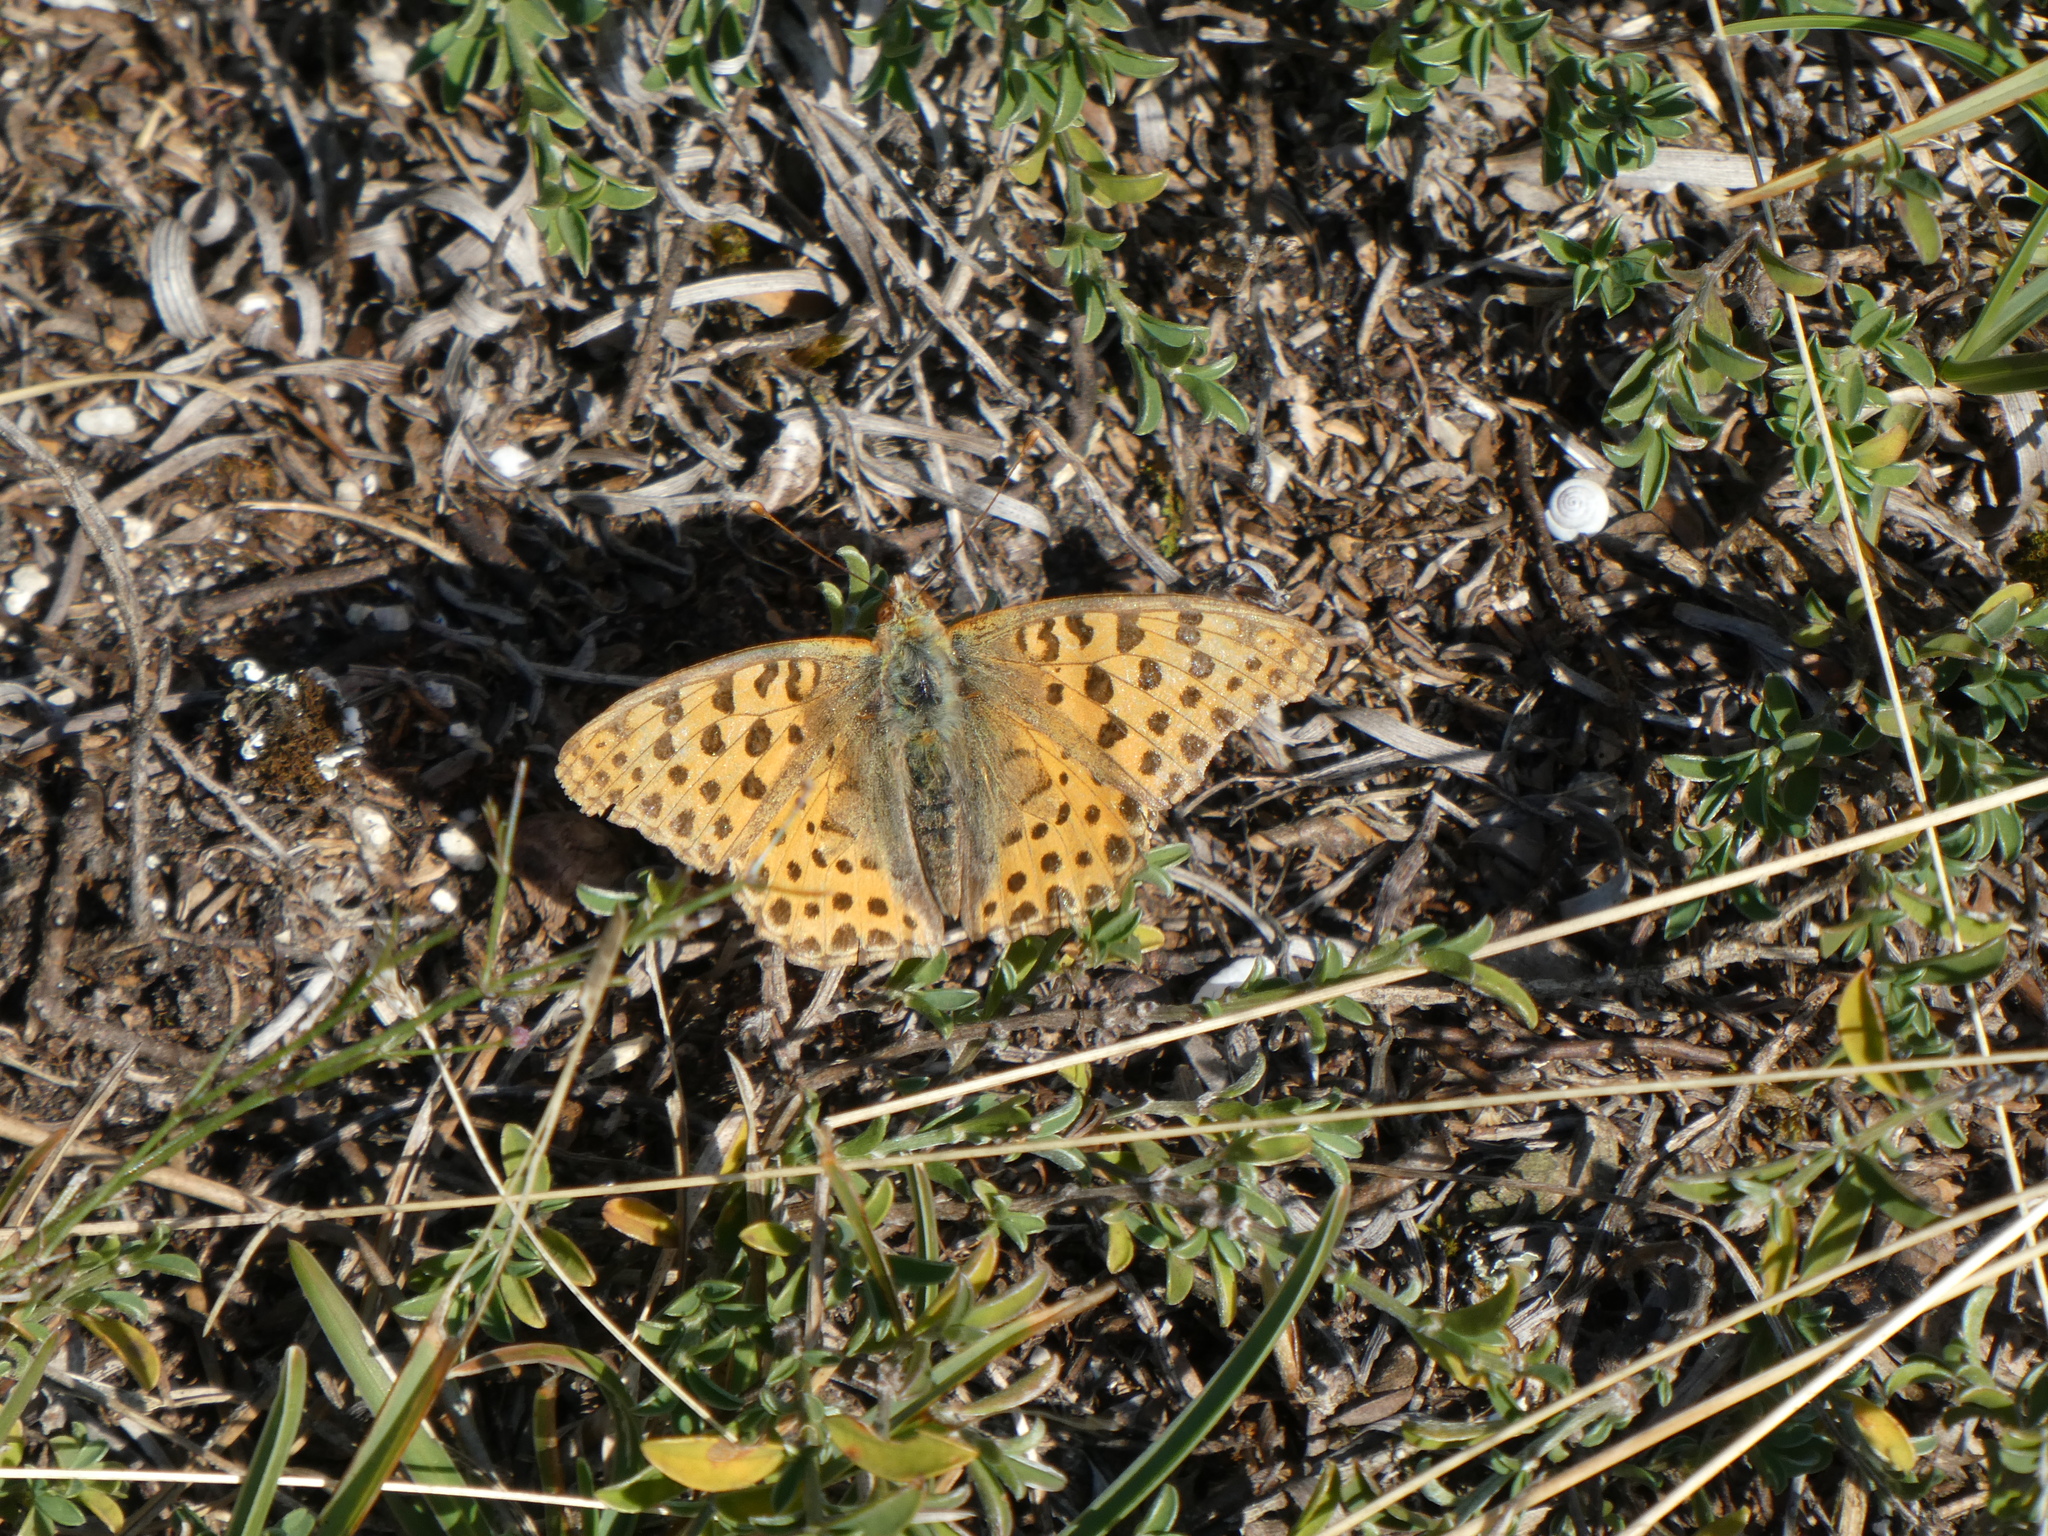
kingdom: Animalia
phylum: Arthropoda
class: Insecta
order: Lepidoptera
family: Nymphalidae
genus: Issoria
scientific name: Issoria lathonia
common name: Queen of spain fritillary
